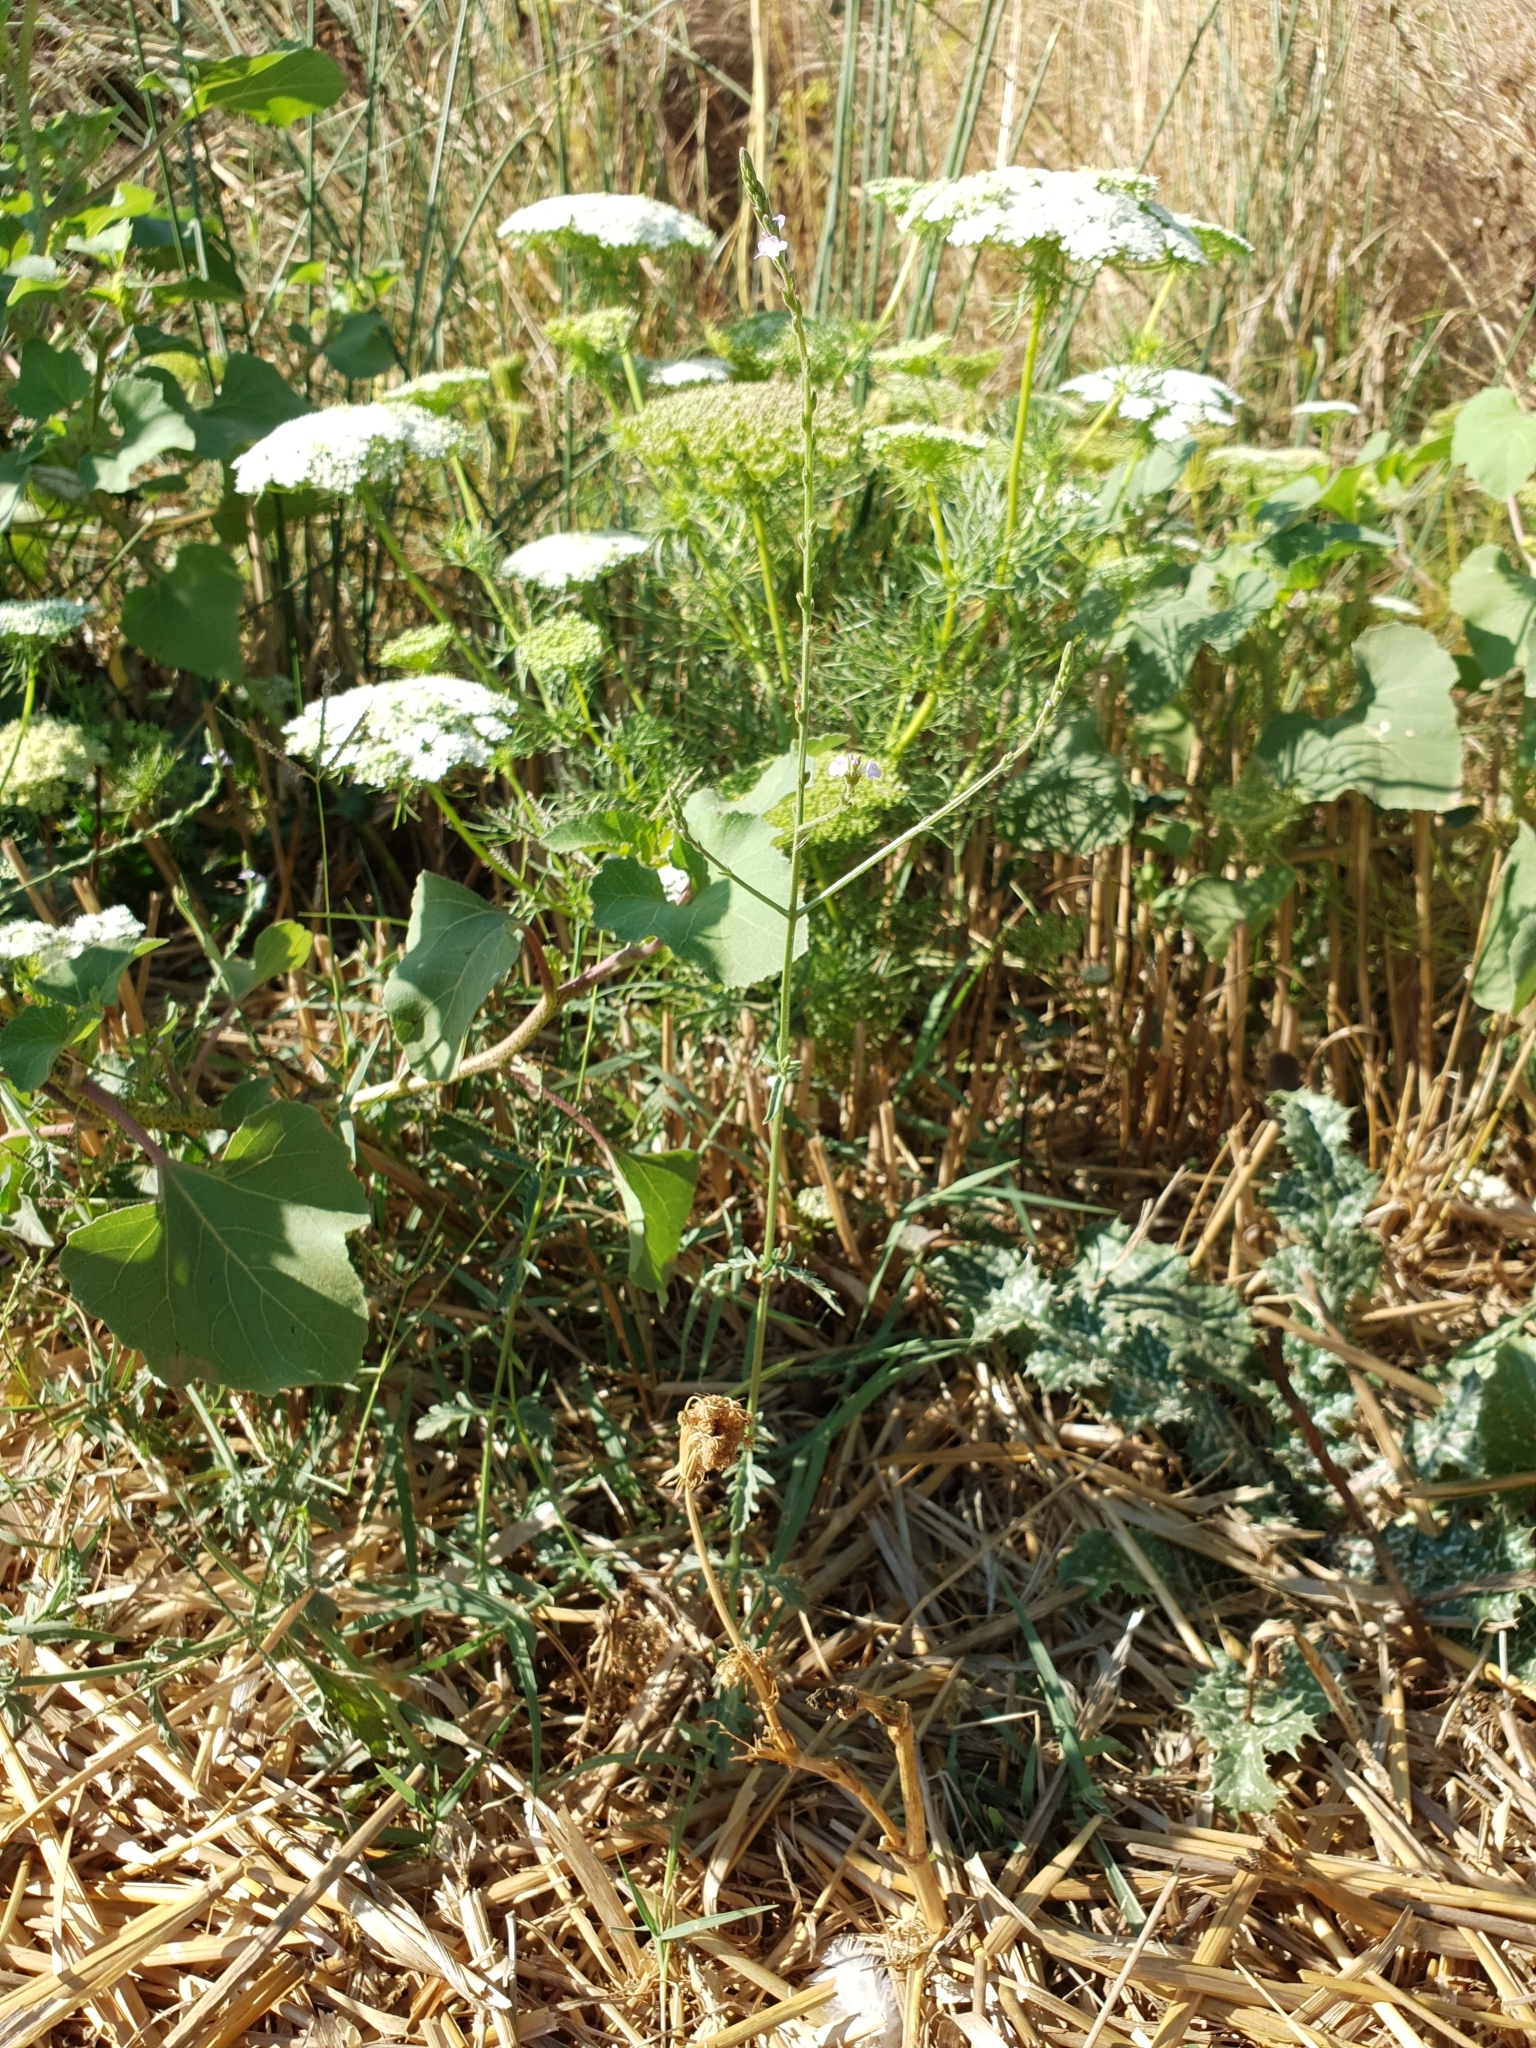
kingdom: Plantae
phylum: Tracheophyta
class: Magnoliopsida
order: Lamiales
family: Verbenaceae
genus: Verbena
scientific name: Verbena officinalis
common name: Vervain
